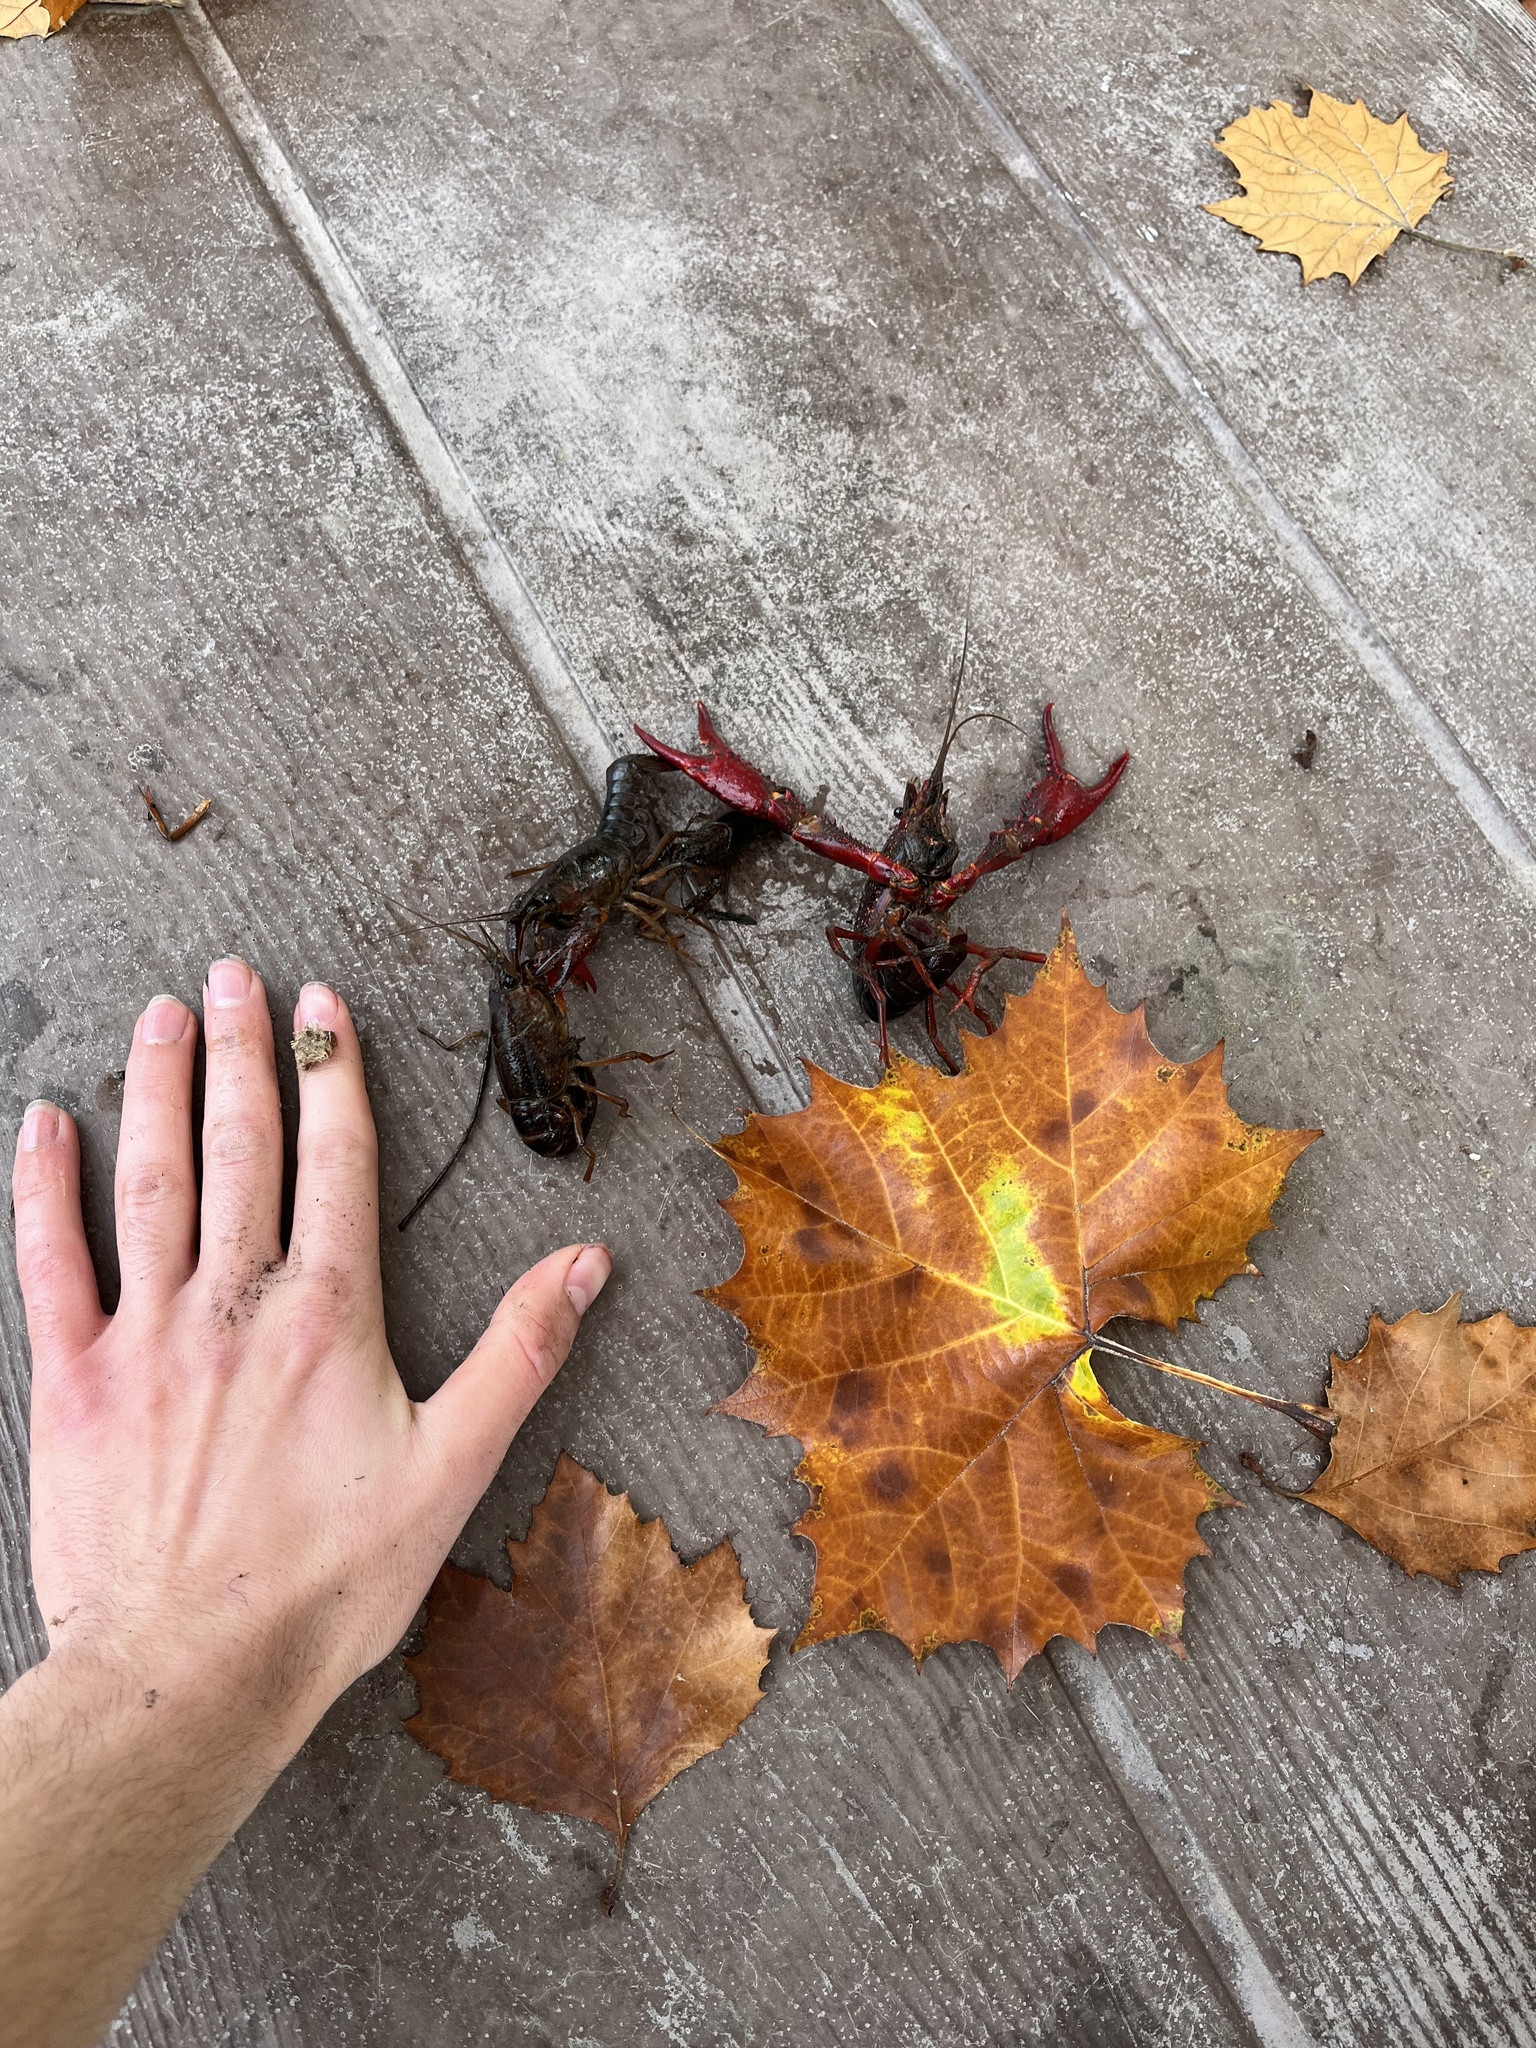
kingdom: Animalia
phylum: Arthropoda
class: Malacostraca
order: Decapoda
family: Cambaridae
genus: Procambarus
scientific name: Procambarus clarkii
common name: Red swamp crayfish
